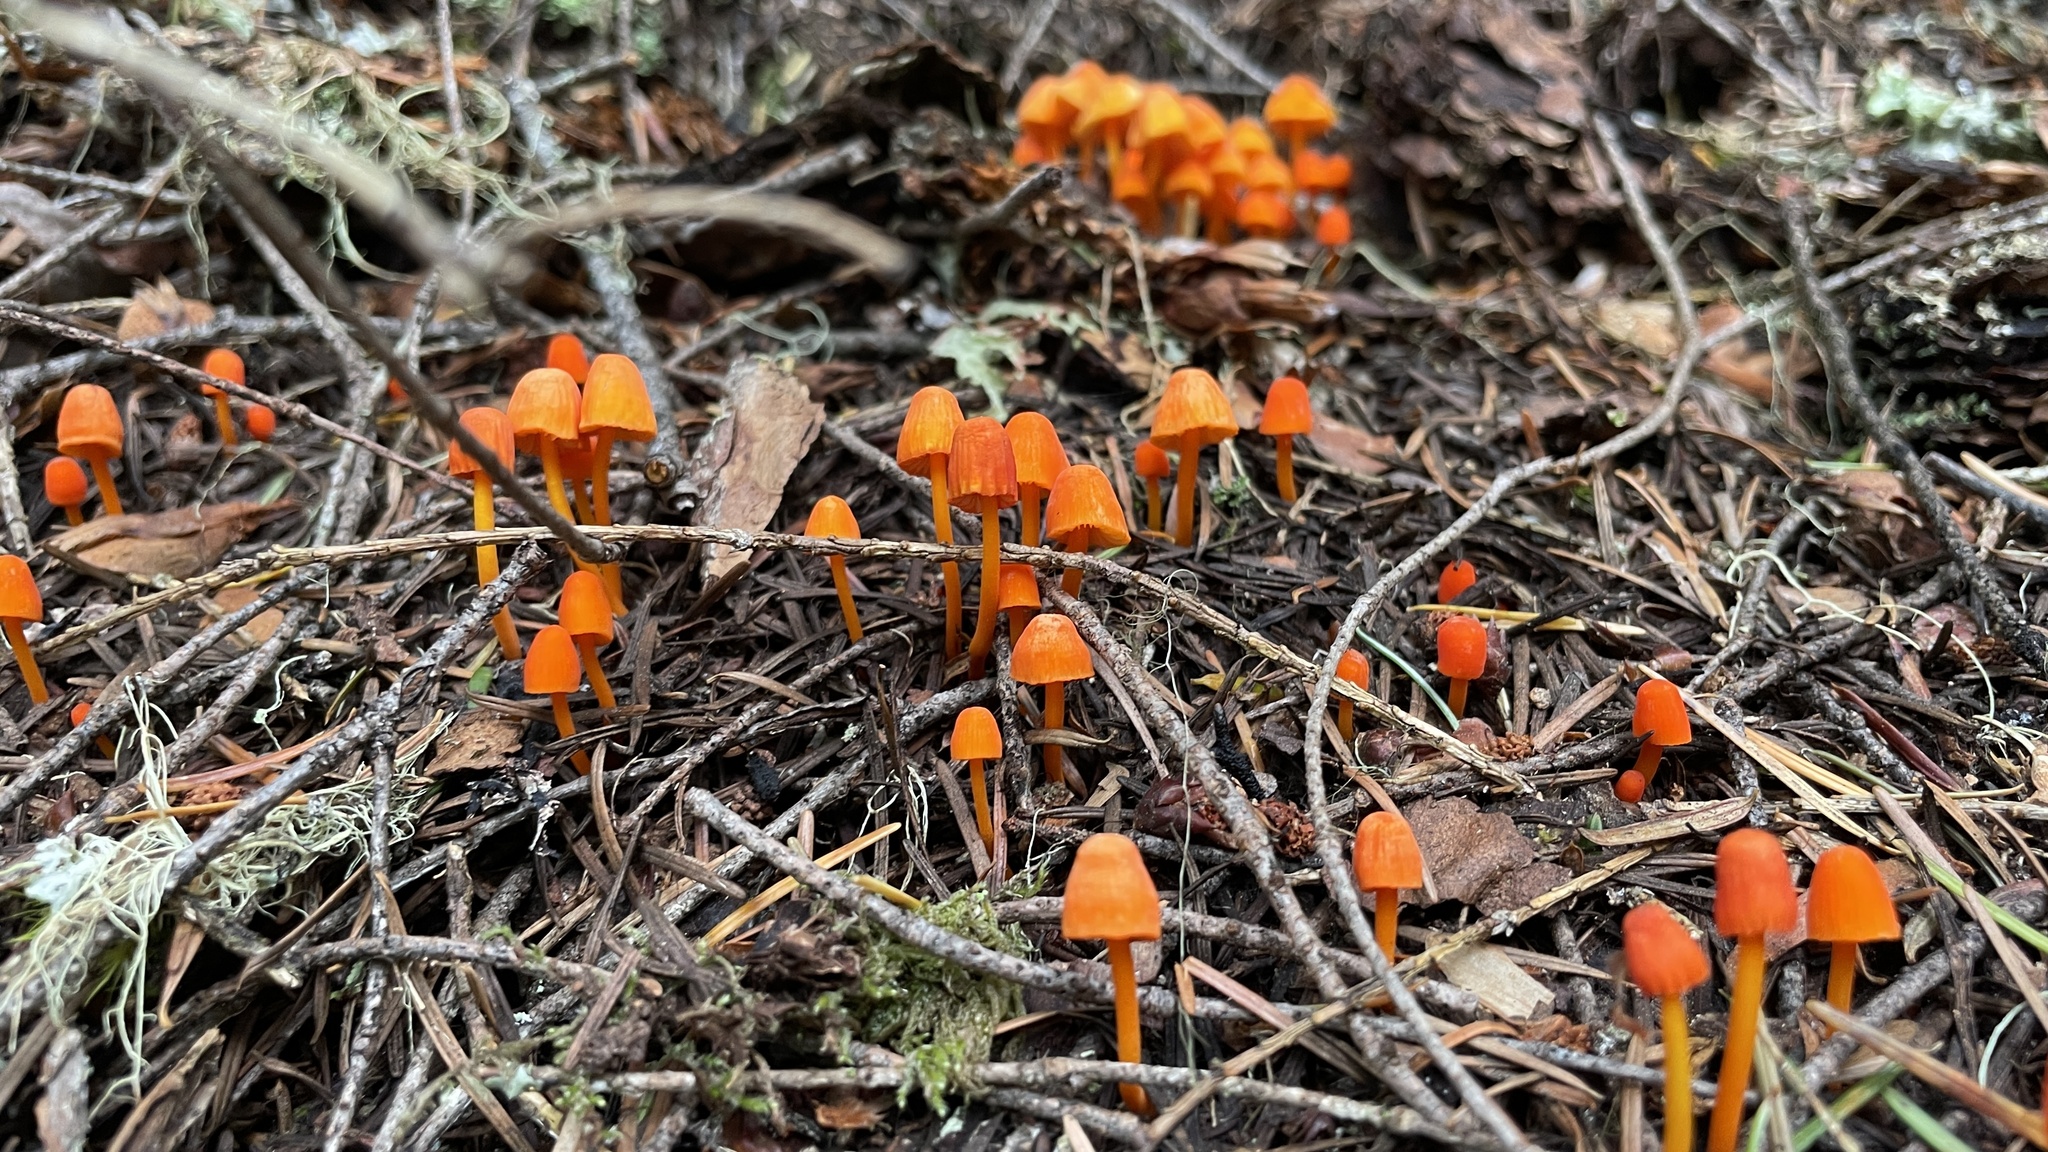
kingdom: Fungi
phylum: Basidiomycota
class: Agaricomycetes
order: Agaricales
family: Mycenaceae
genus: Mycena
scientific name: Mycena strobilinoidea
